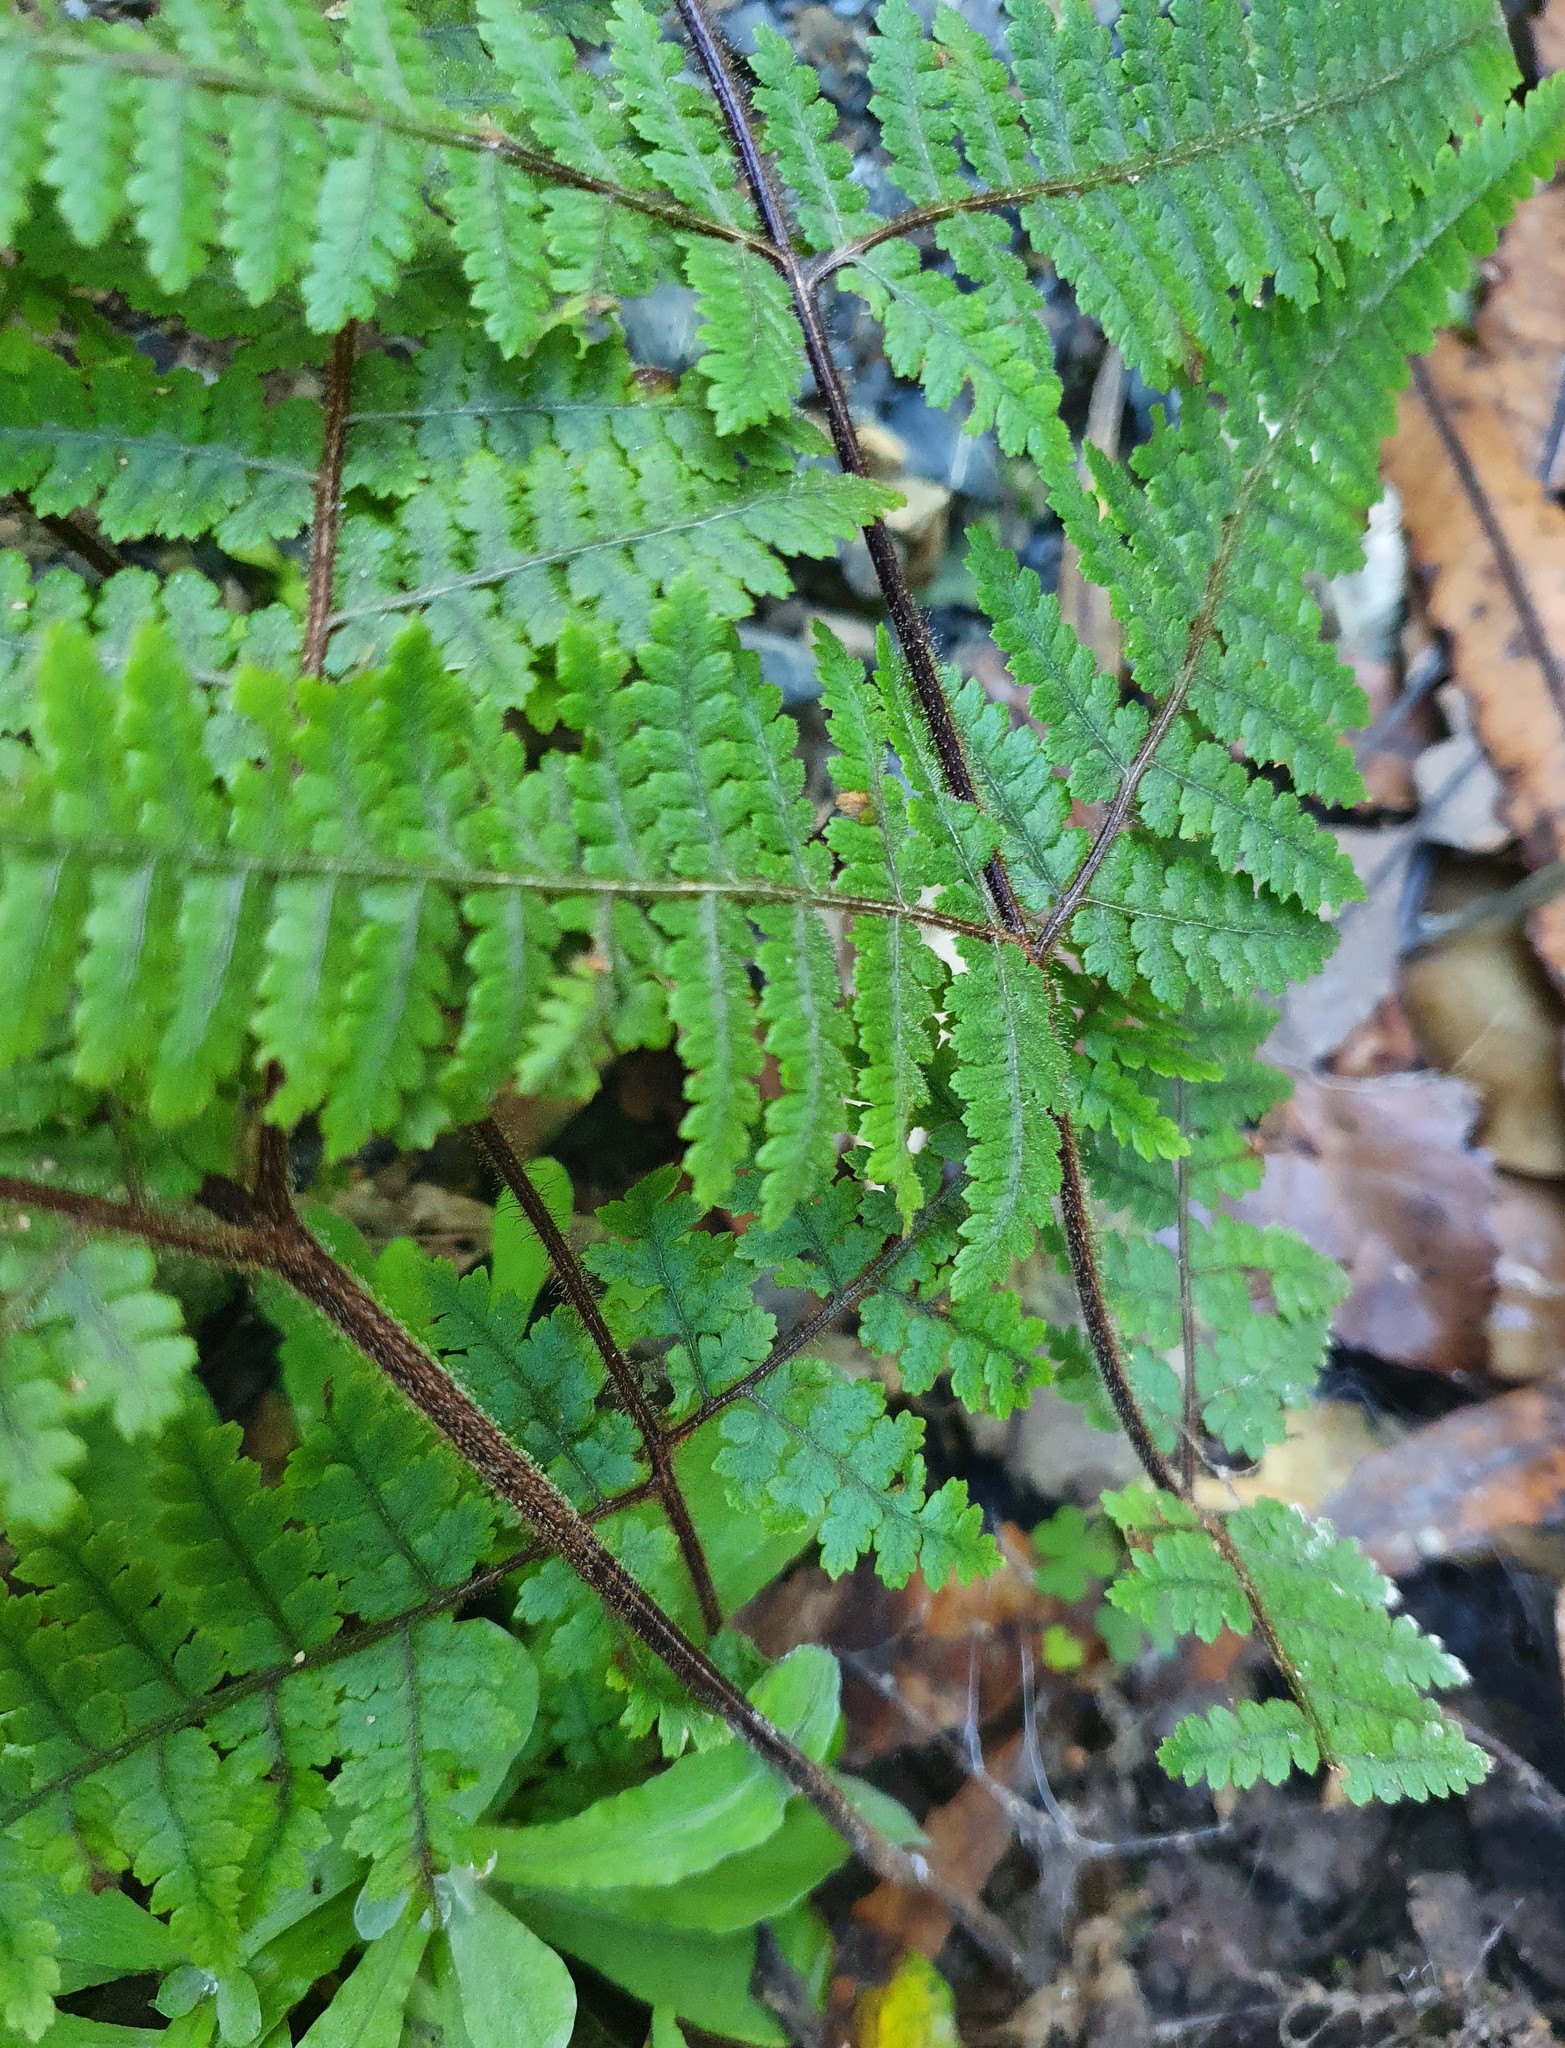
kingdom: Plantae
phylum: Tracheophyta
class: Polypodiopsida
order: Polypodiales
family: Dennstaedtiaceae
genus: Hypolepis
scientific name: Hypolepis rugosula
